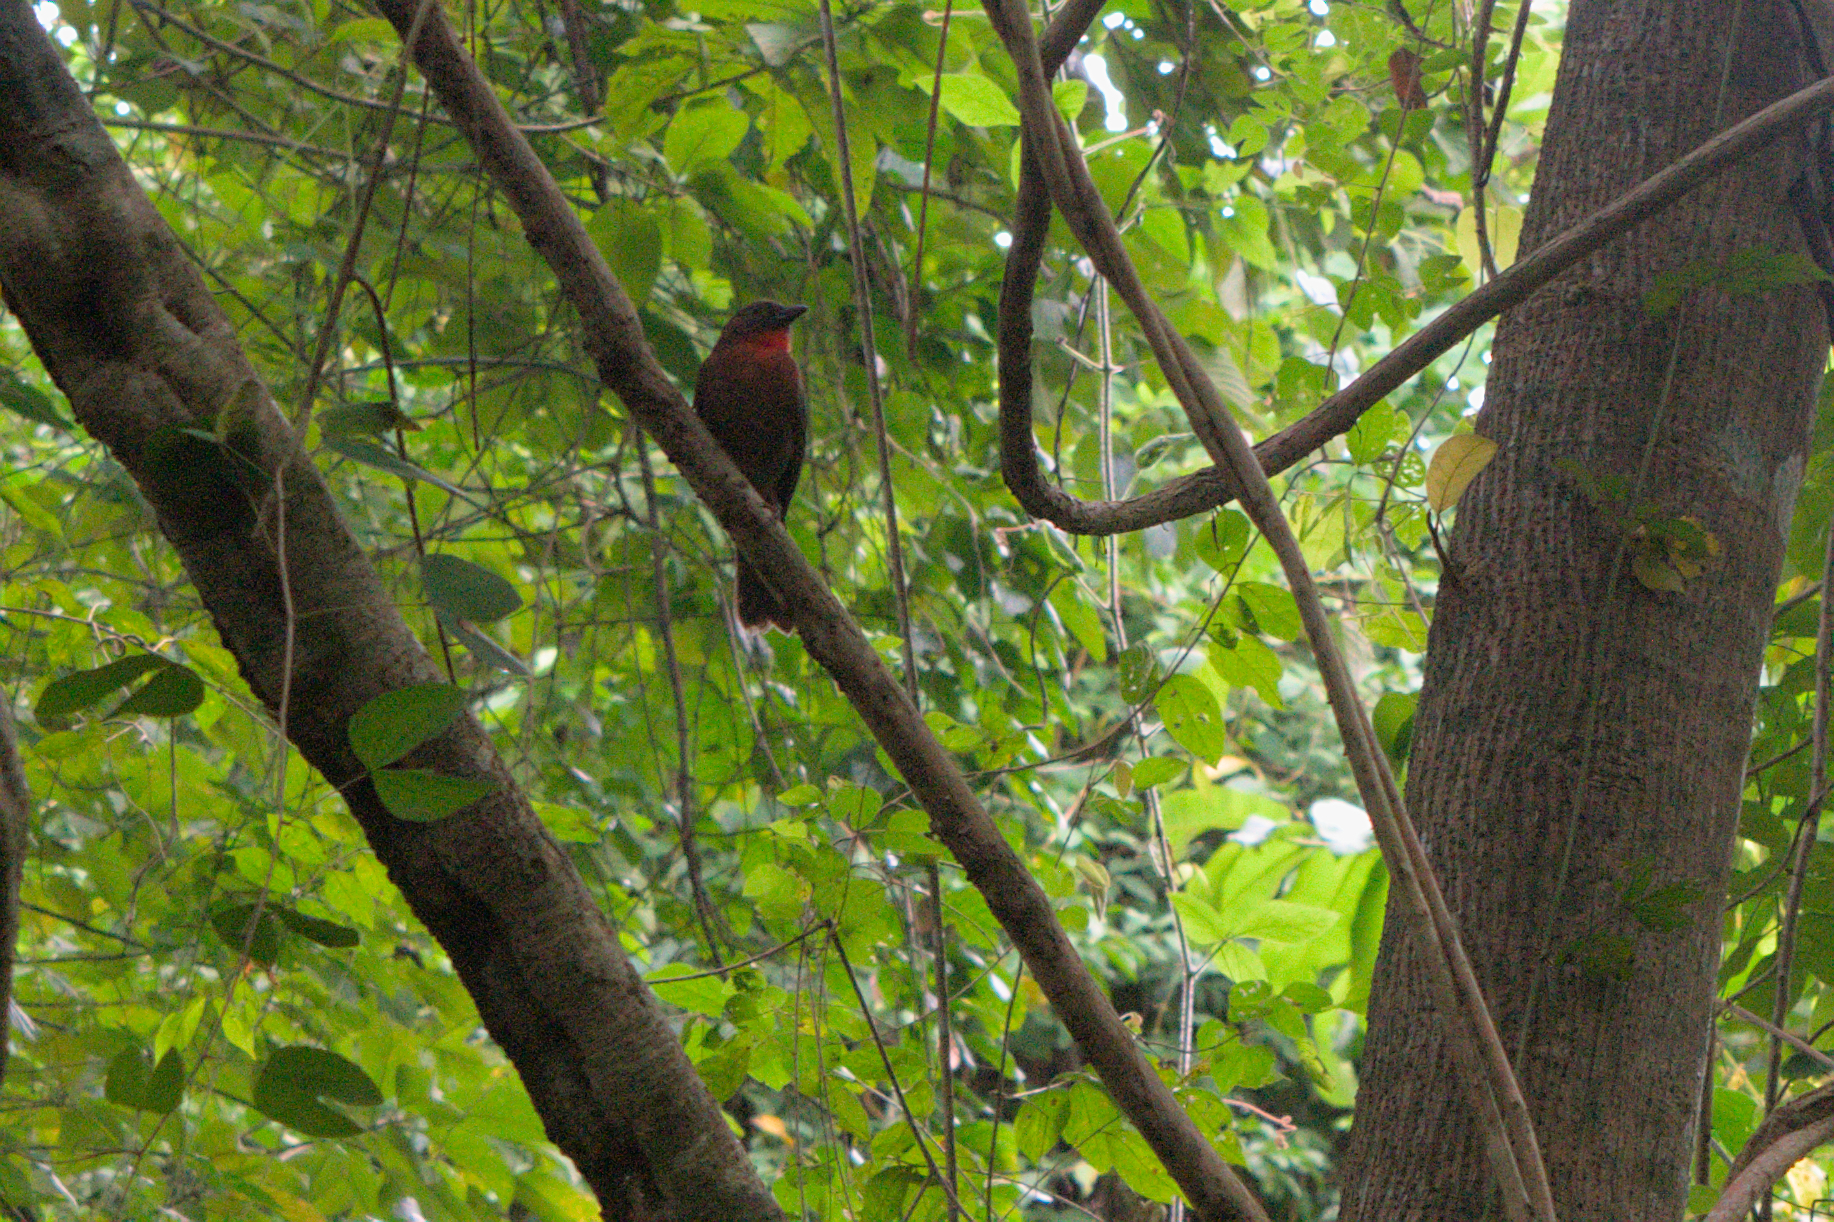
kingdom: Animalia
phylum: Chordata
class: Aves
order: Passeriformes
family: Cardinalidae
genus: Habia
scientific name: Habia fuscicauda
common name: Red-throated ant-tanager
